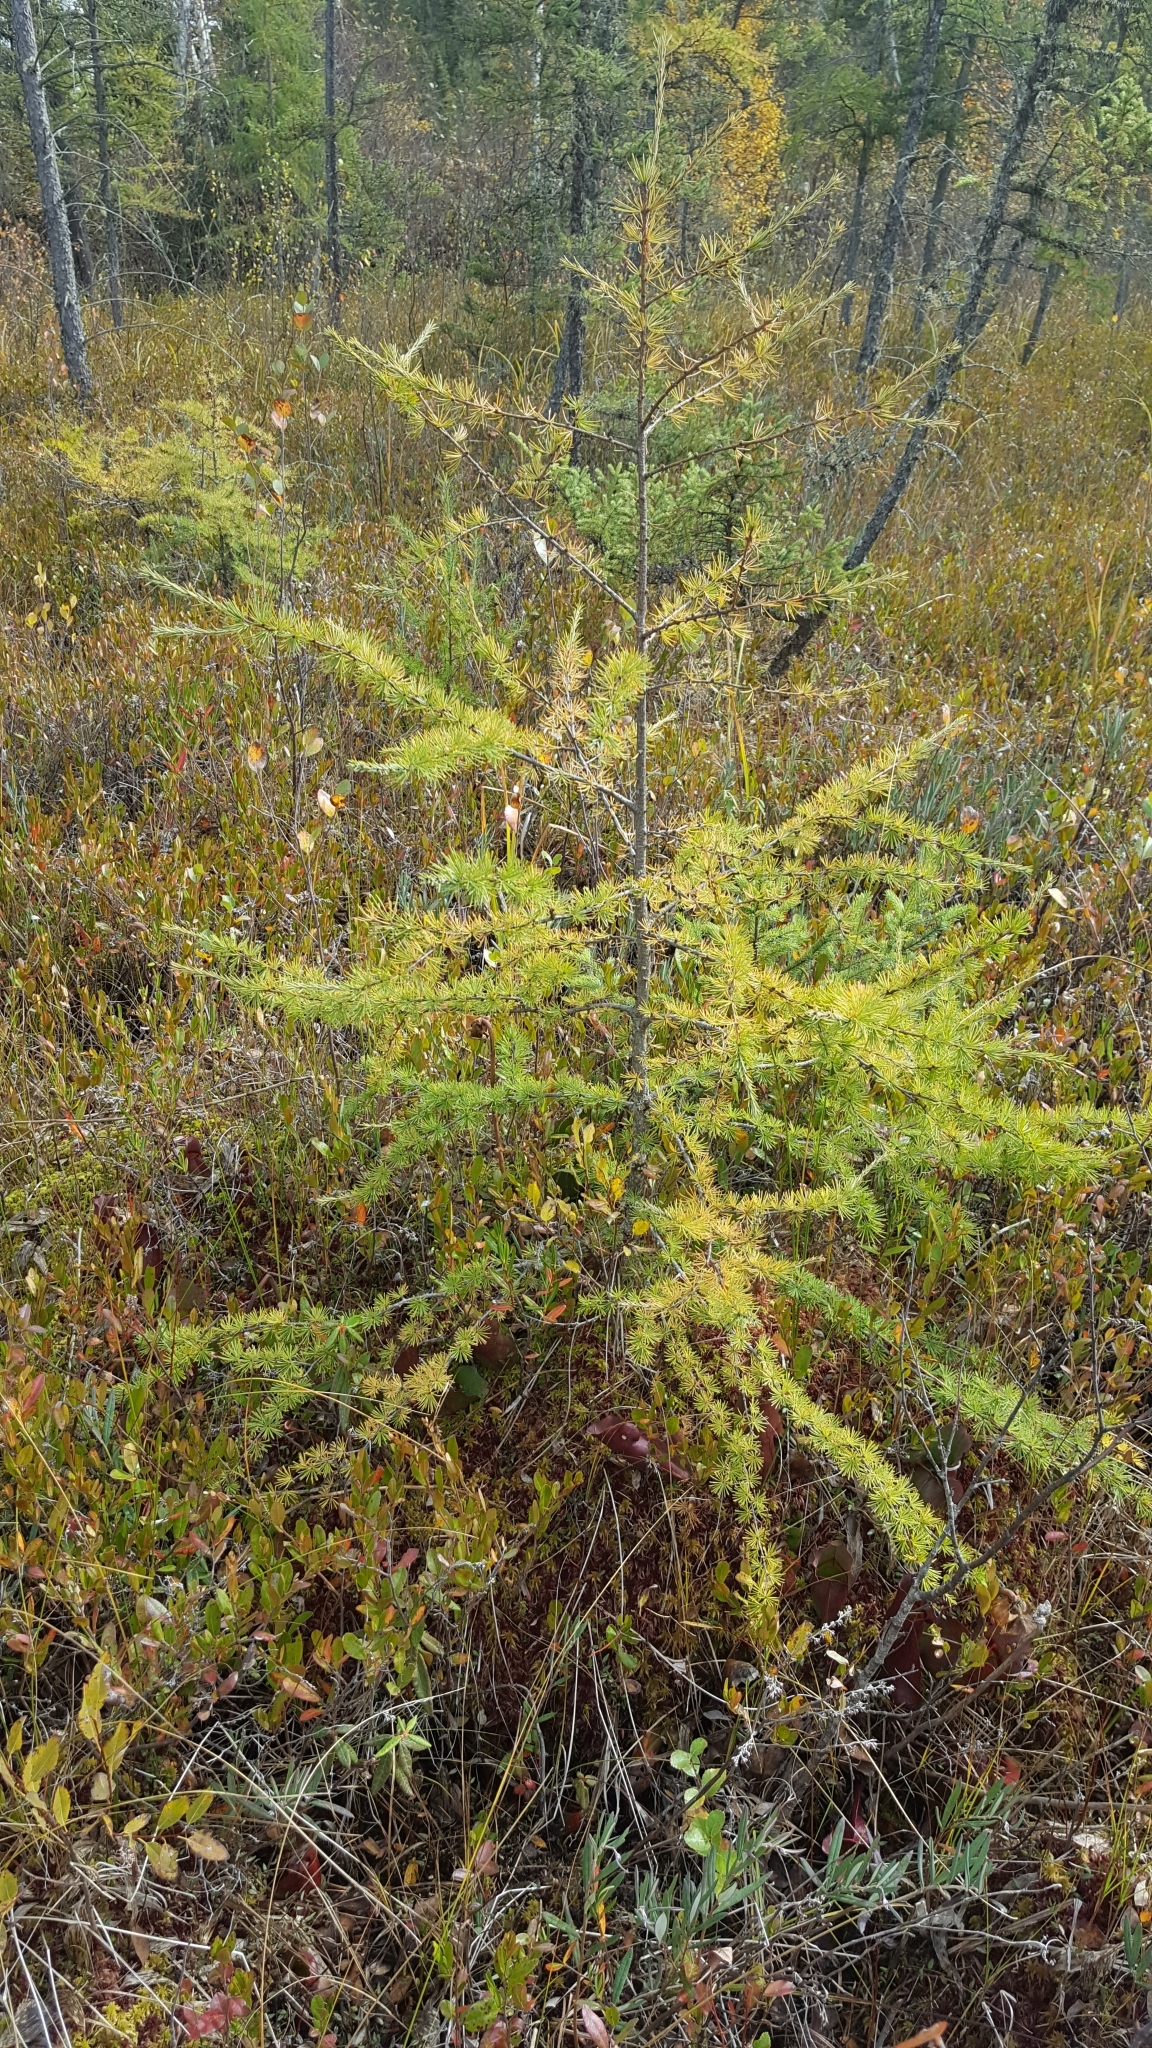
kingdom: Plantae
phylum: Tracheophyta
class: Pinopsida
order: Pinales
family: Pinaceae
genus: Larix
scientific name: Larix laricina
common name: American larch
